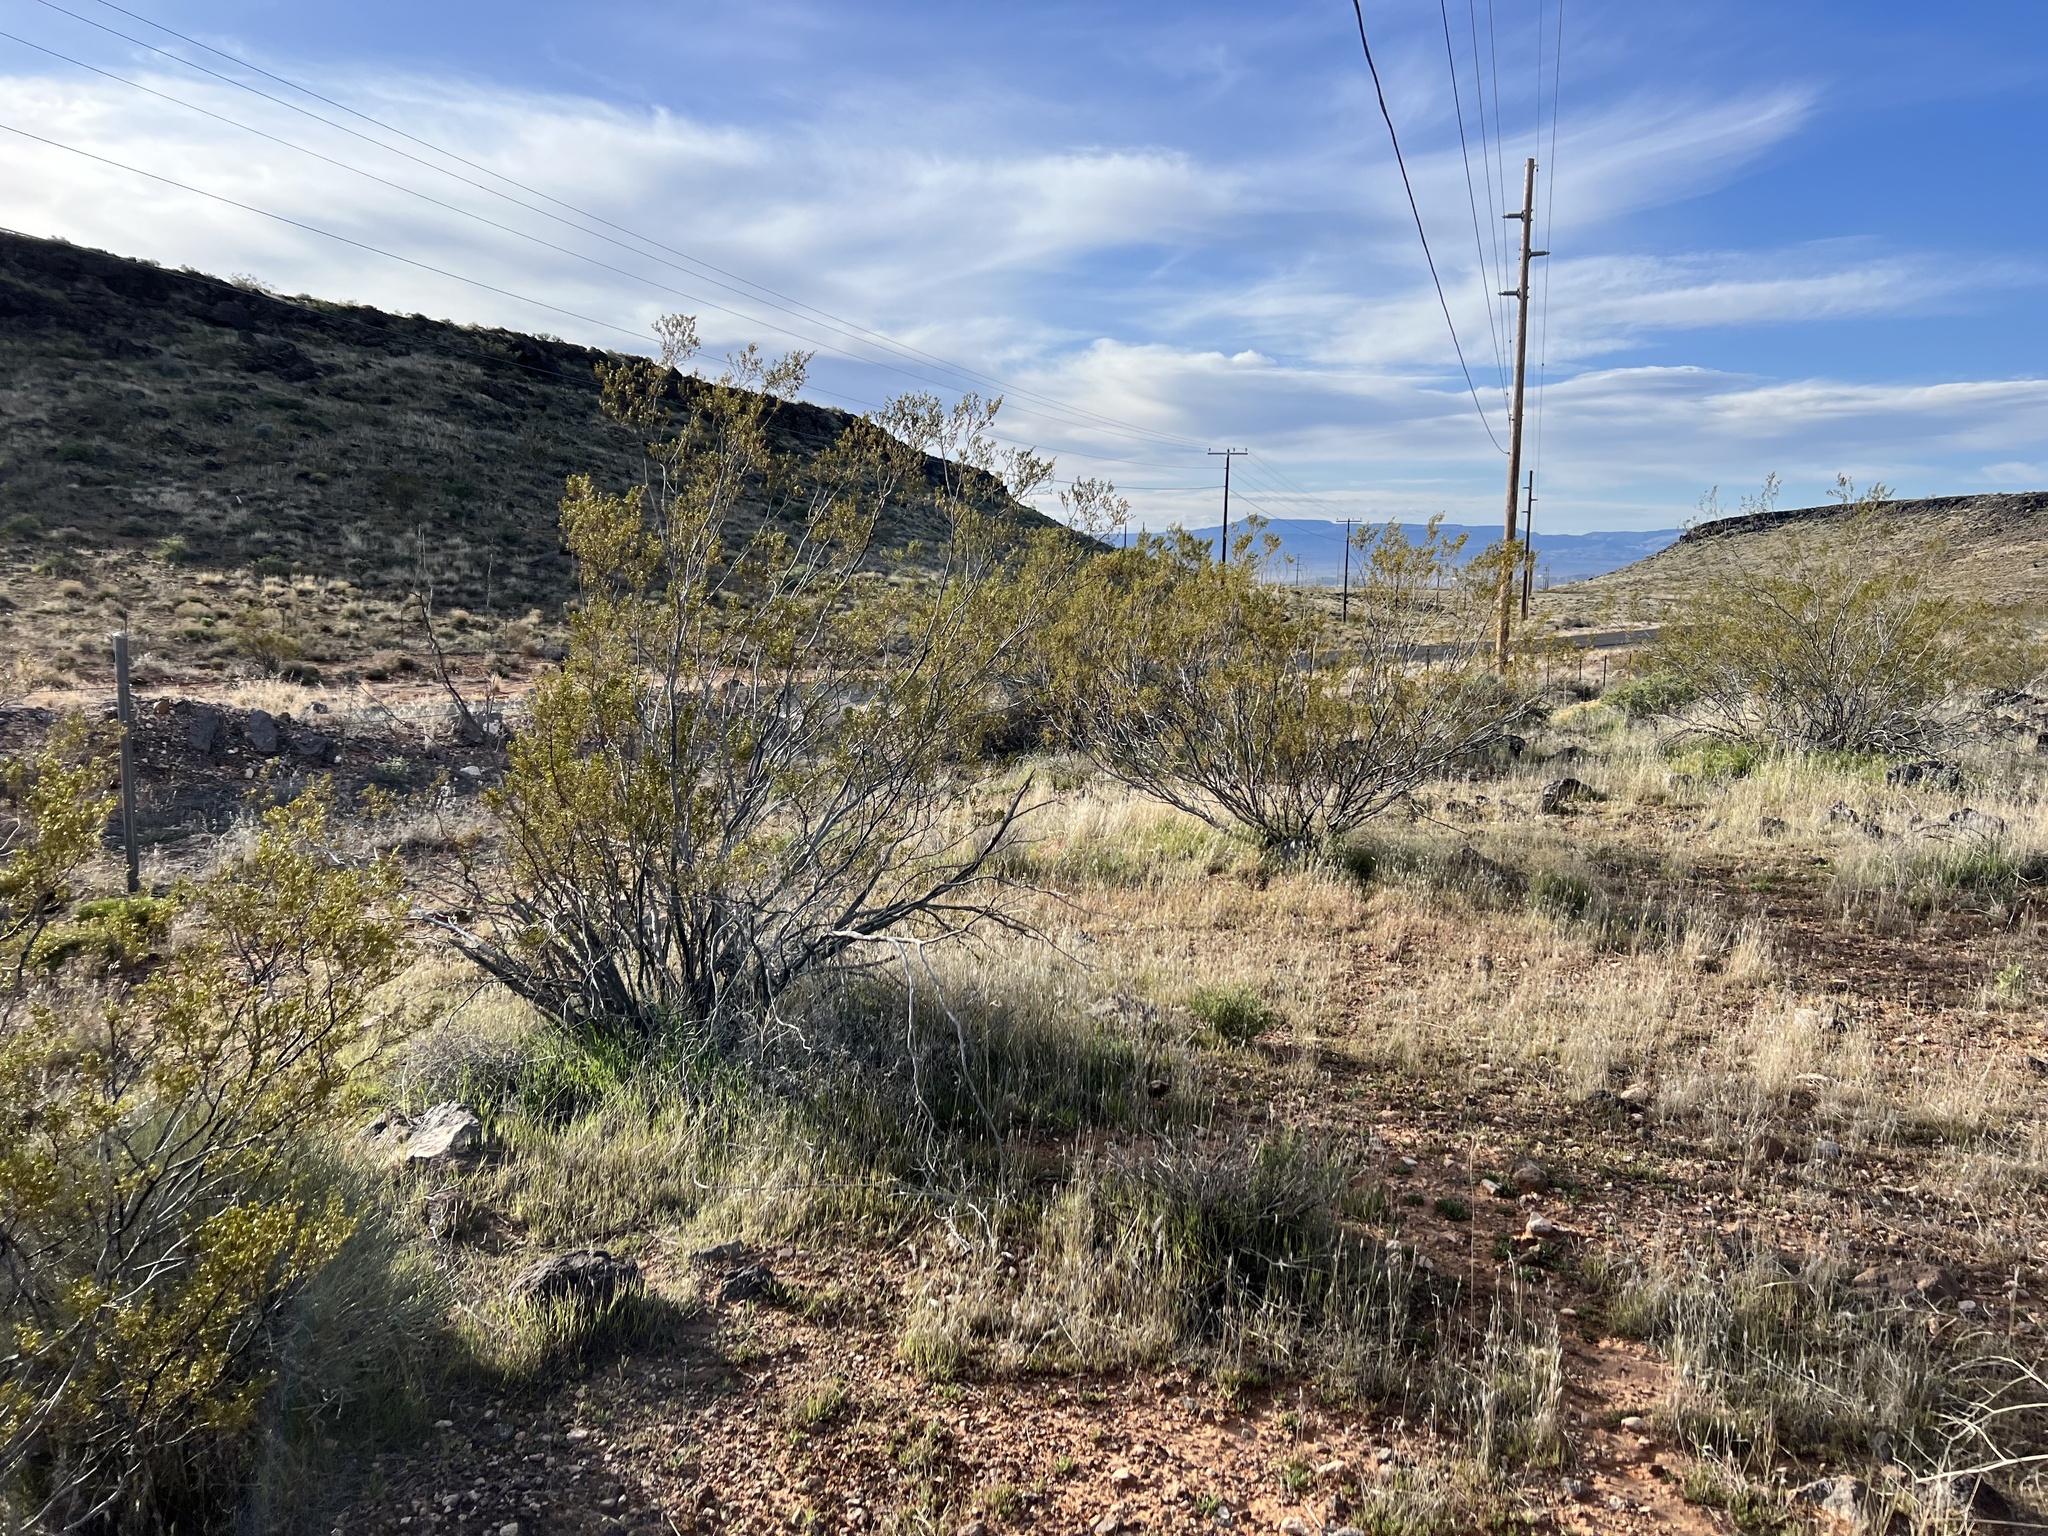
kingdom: Plantae
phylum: Tracheophyta
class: Magnoliopsida
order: Zygophyllales
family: Zygophyllaceae
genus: Larrea
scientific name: Larrea tridentata
